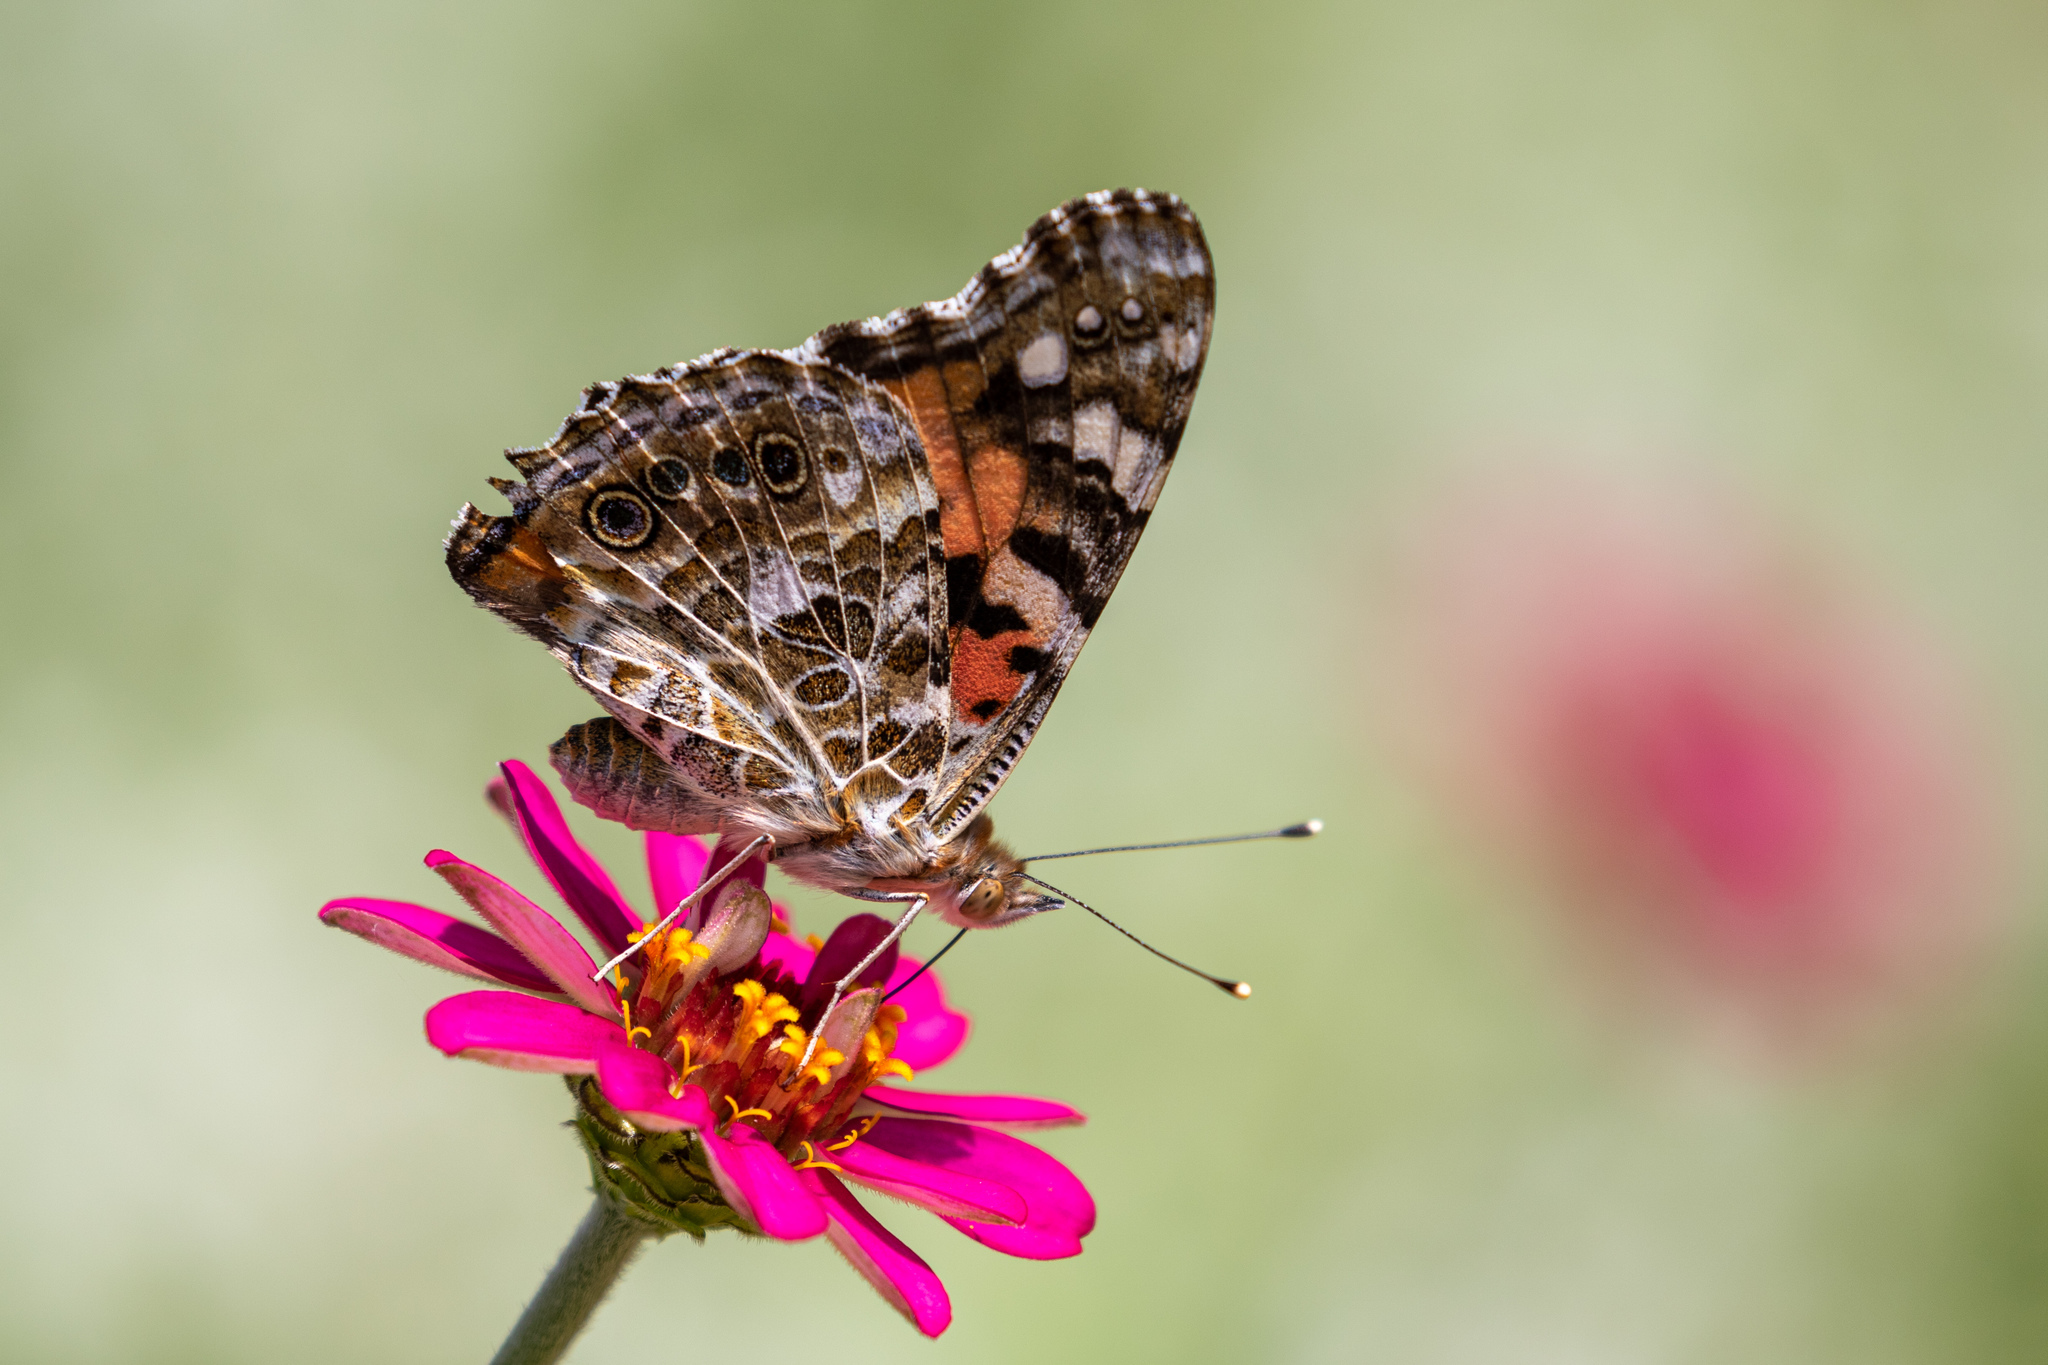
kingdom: Animalia
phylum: Arthropoda
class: Insecta
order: Lepidoptera
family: Nymphalidae
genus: Vanessa
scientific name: Vanessa cardui
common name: Painted lady
